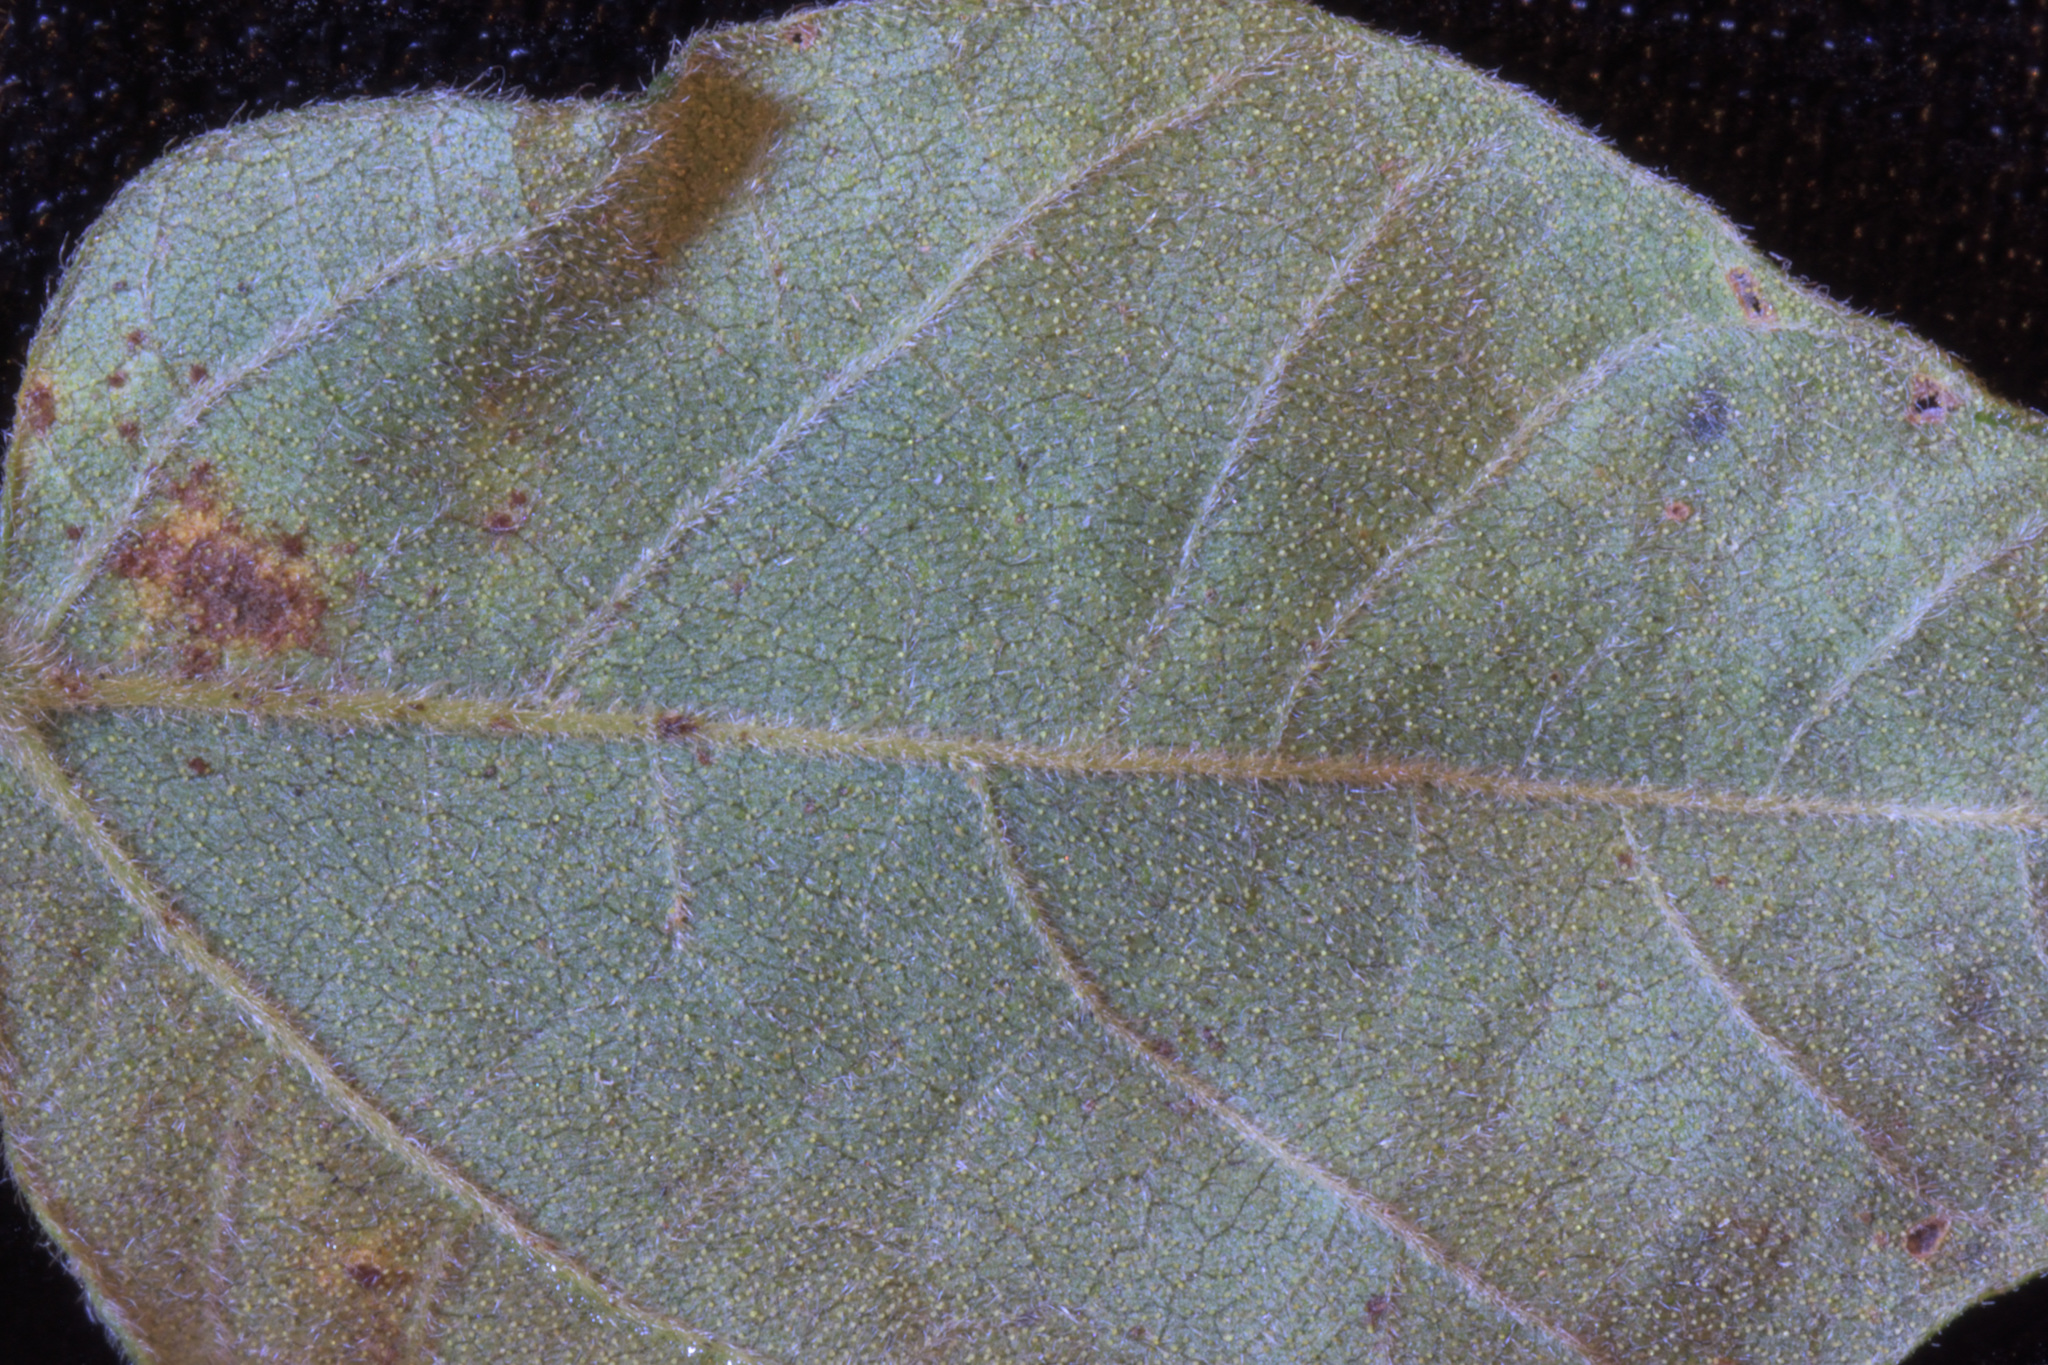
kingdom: Plantae
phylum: Tracheophyta
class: Magnoliopsida
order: Fabales
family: Fabaceae
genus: Rhynchosia
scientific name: Rhynchosia caribaea
